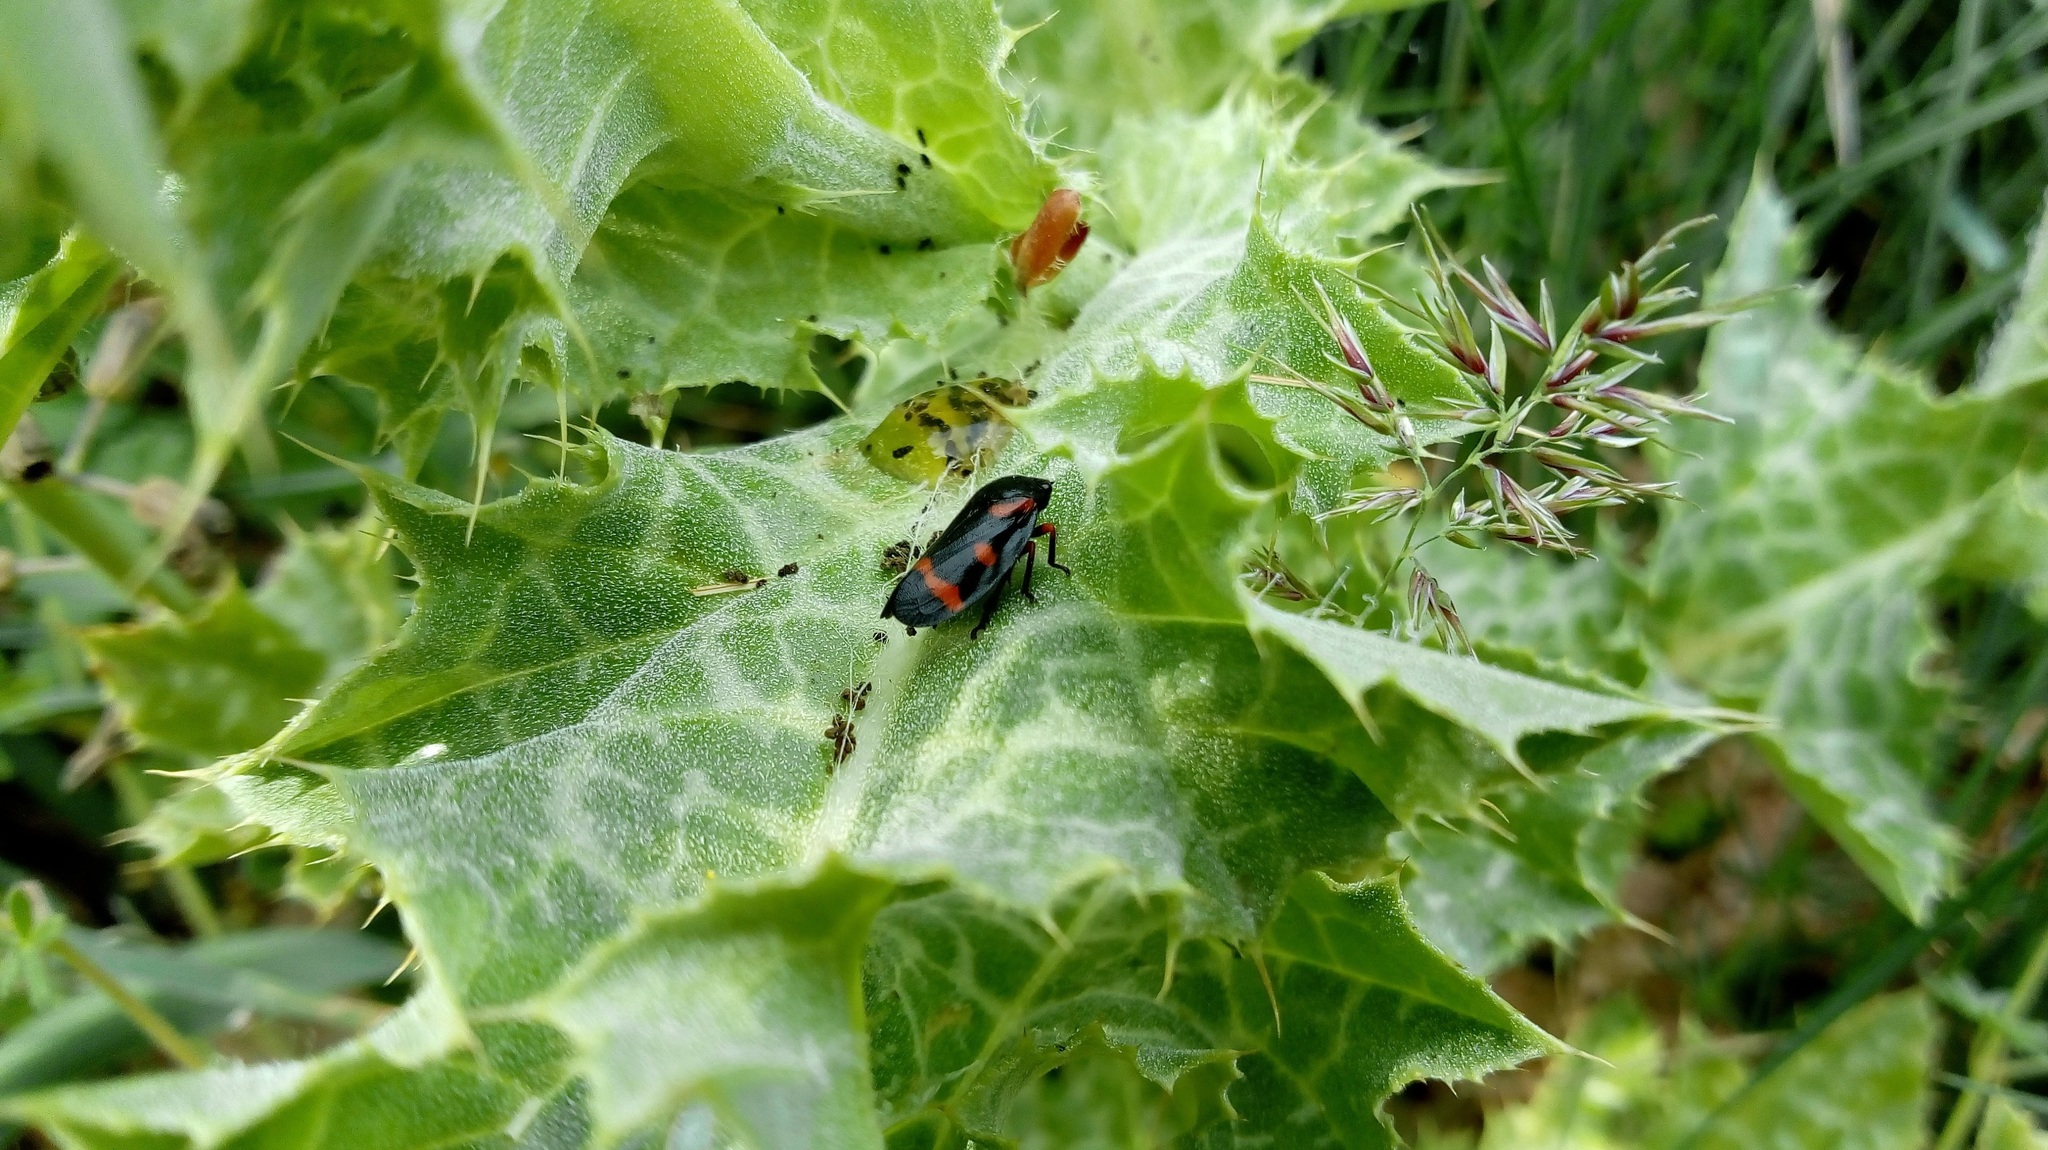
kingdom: Animalia
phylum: Arthropoda
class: Insecta
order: Hemiptera
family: Cercopidae
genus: Cercopis
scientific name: Cercopis intermedia
